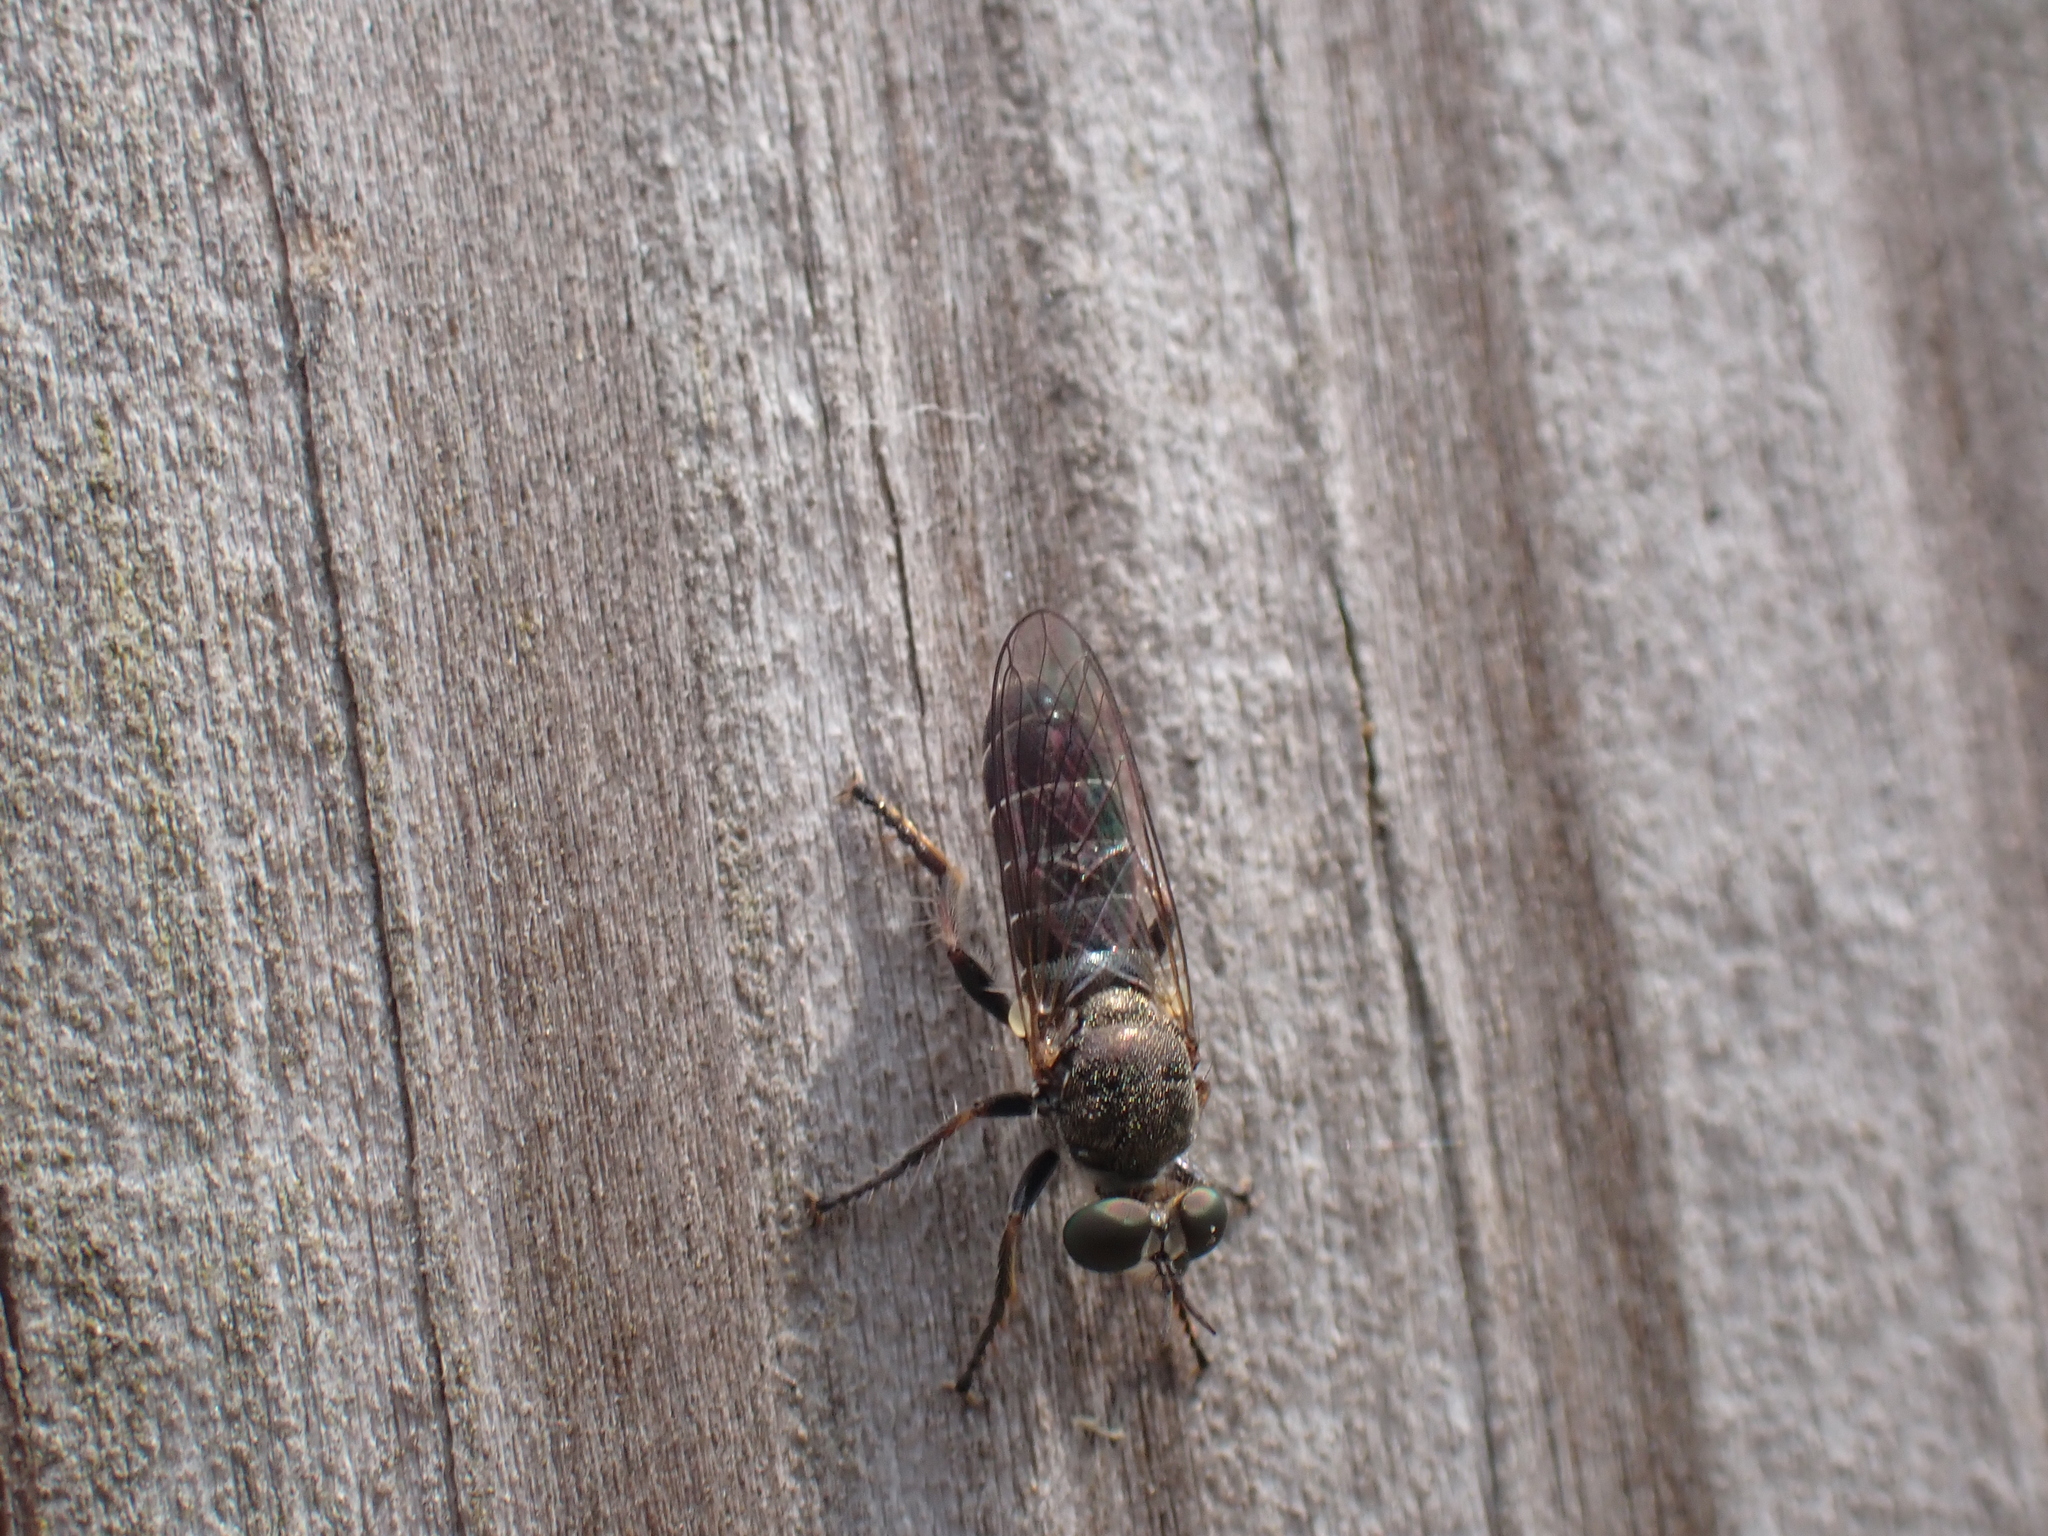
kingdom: Animalia
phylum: Arthropoda
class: Insecta
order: Diptera
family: Asilidae
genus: Atomosia
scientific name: Atomosia puella
